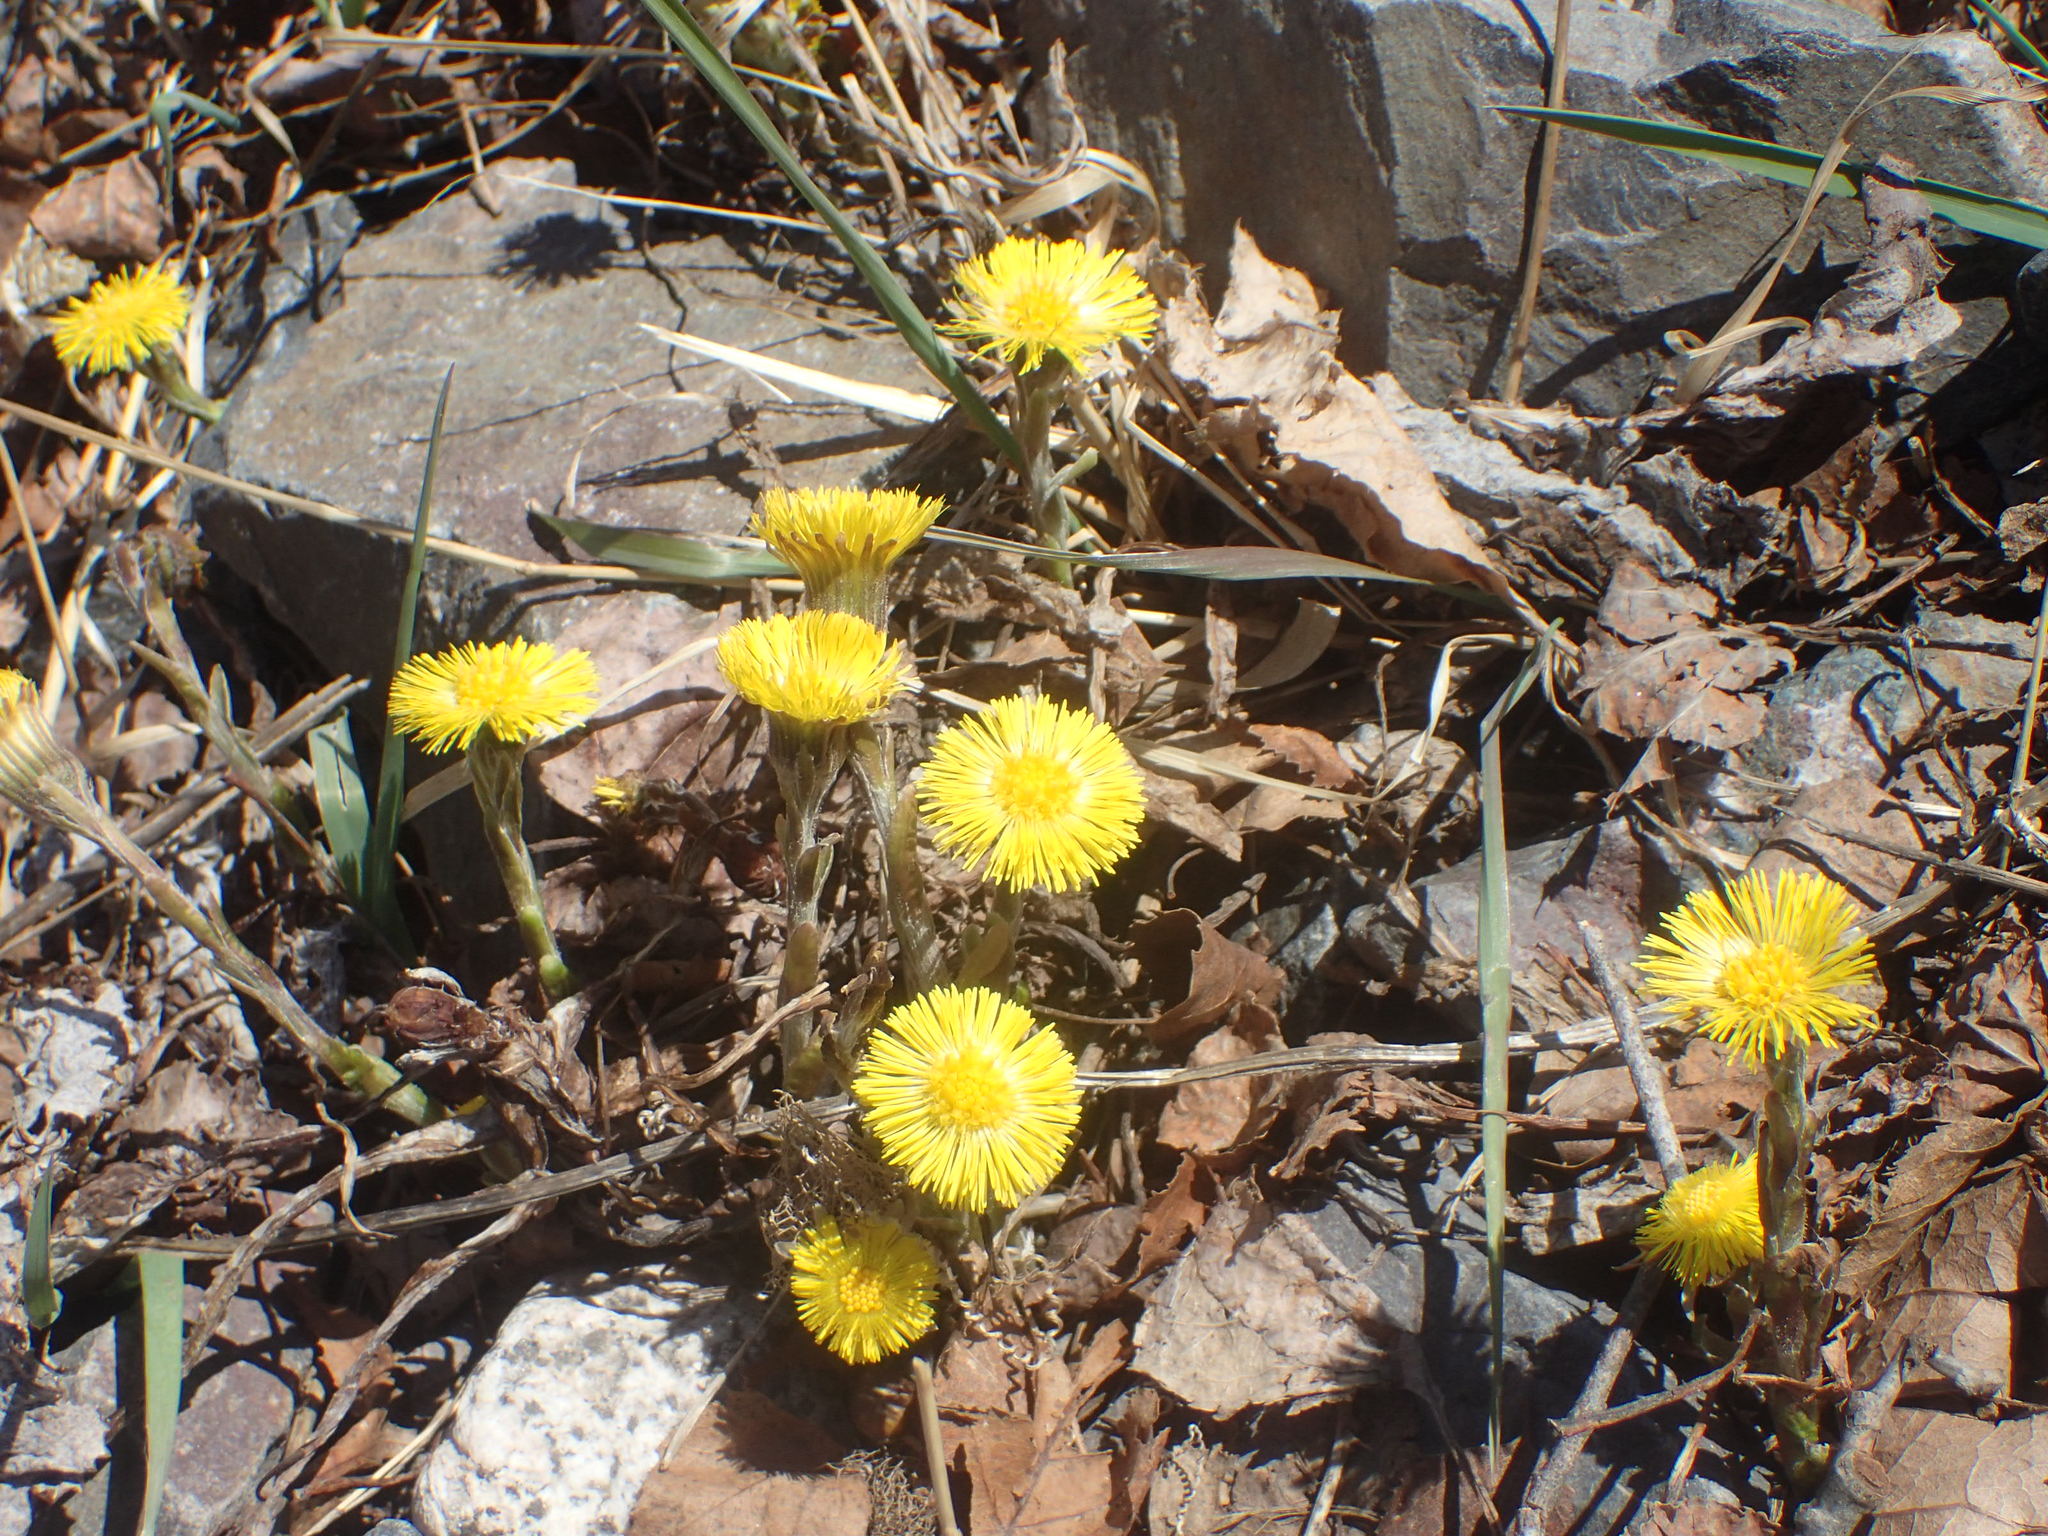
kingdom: Plantae
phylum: Tracheophyta
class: Magnoliopsida
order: Asterales
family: Asteraceae
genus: Tussilago
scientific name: Tussilago farfara
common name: Coltsfoot
